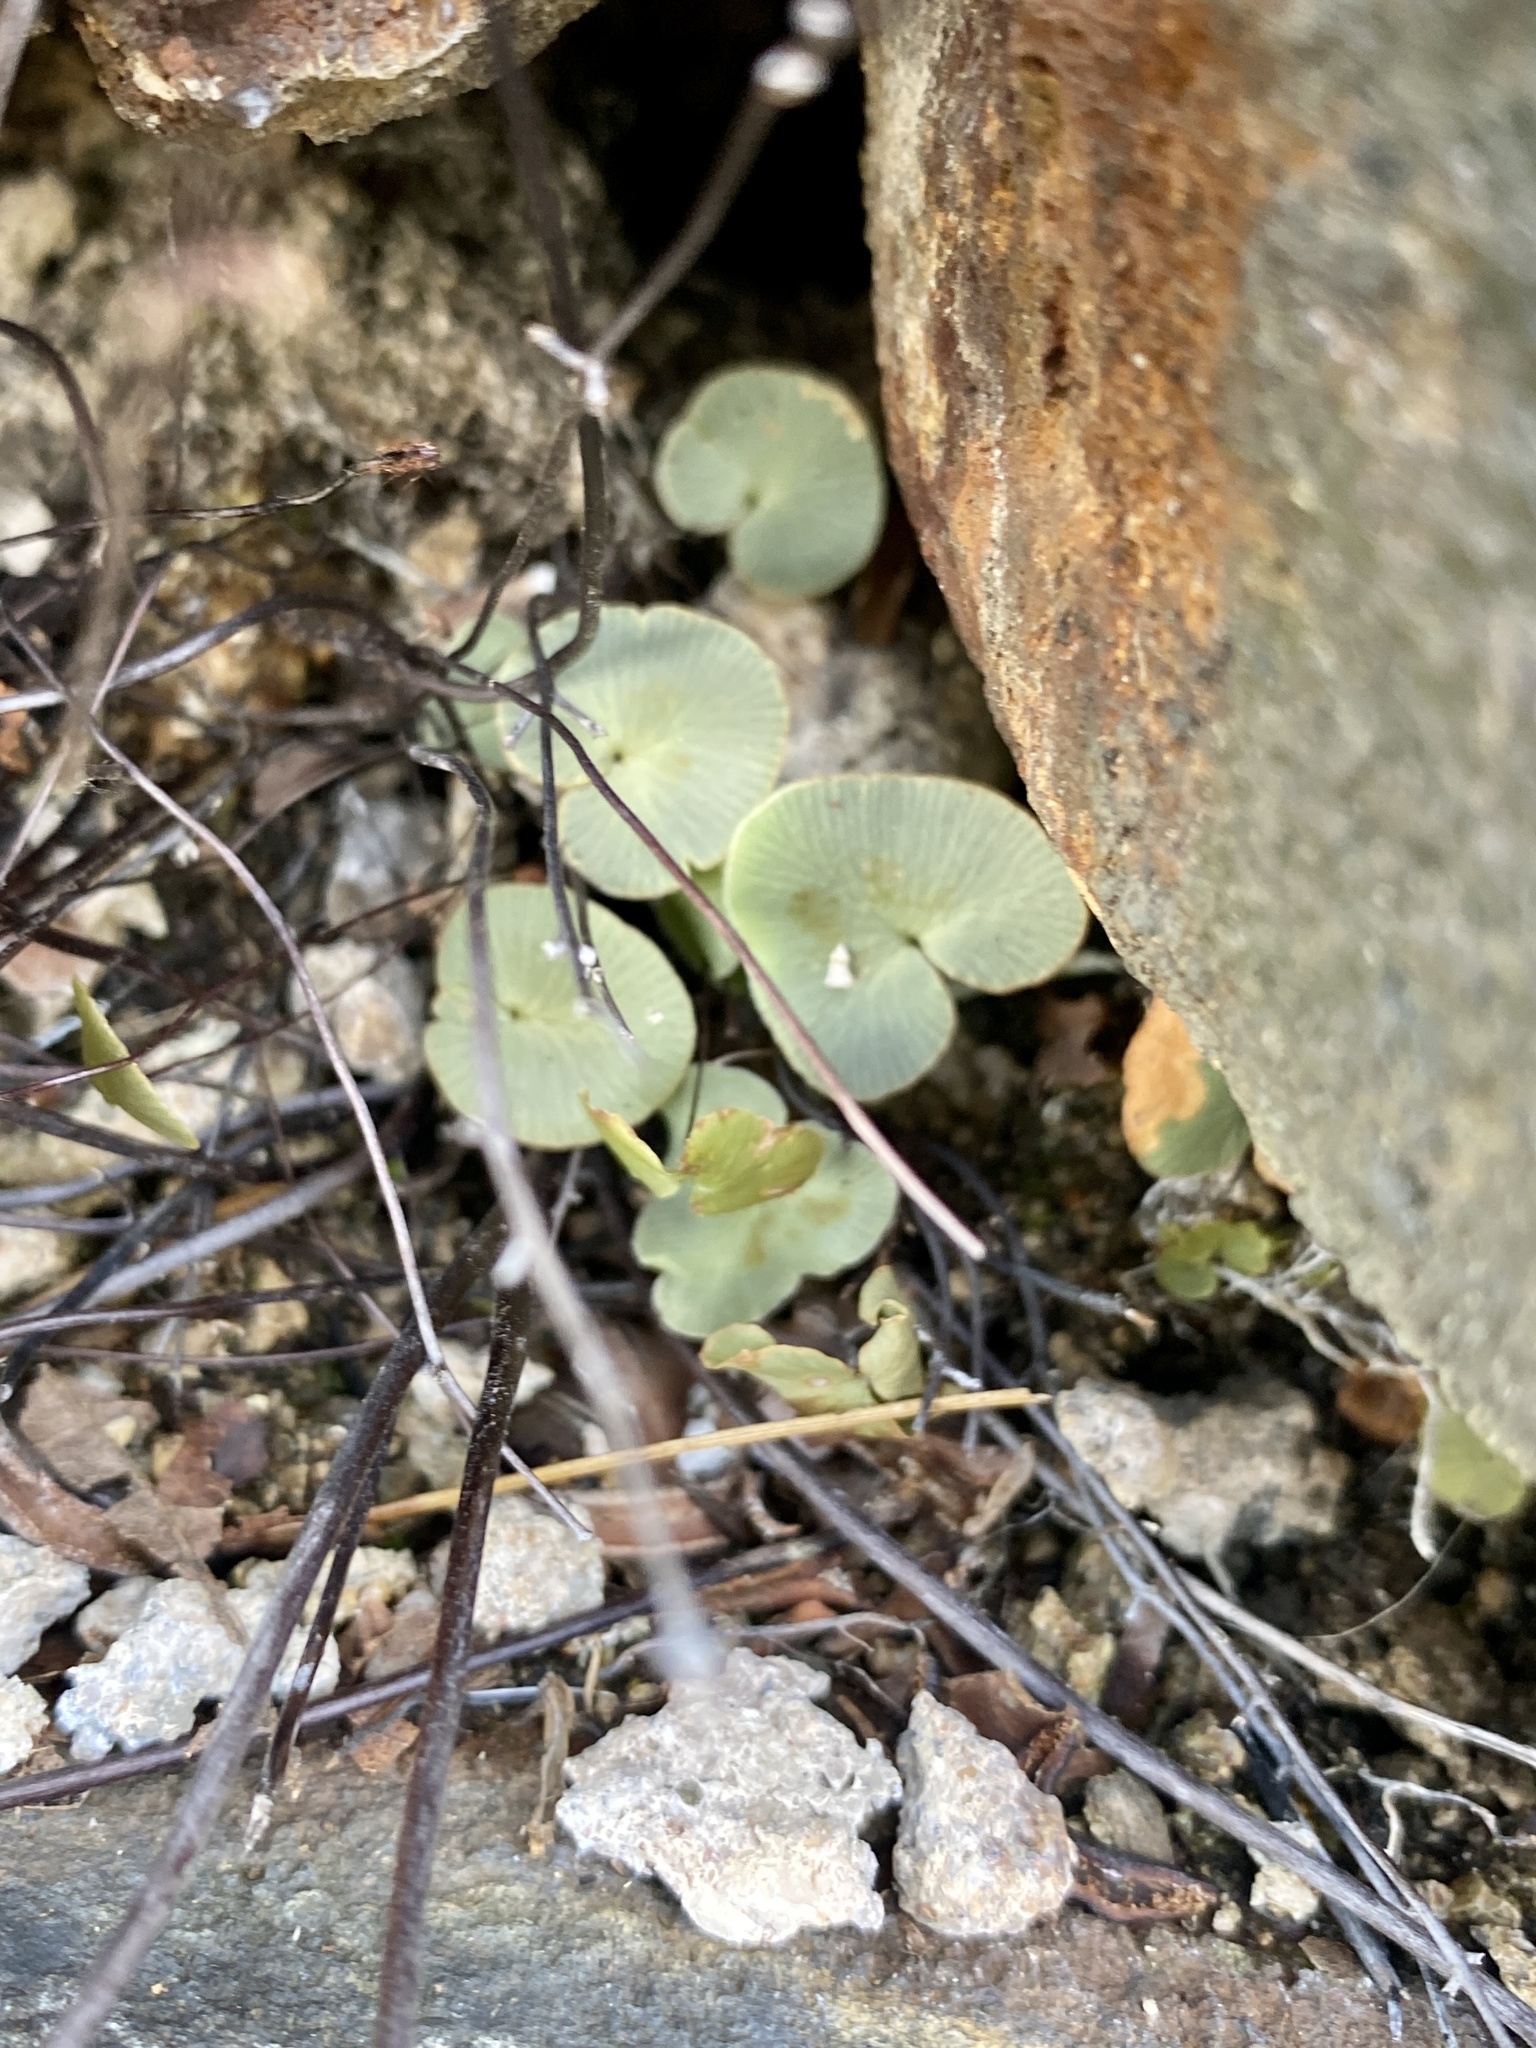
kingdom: Plantae
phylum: Tracheophyta
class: Polypodiopsida
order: Polypodiales
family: Pteridaceae
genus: Pellaea
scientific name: Pellaea atropurpurea
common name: Hairy cliffbrake
